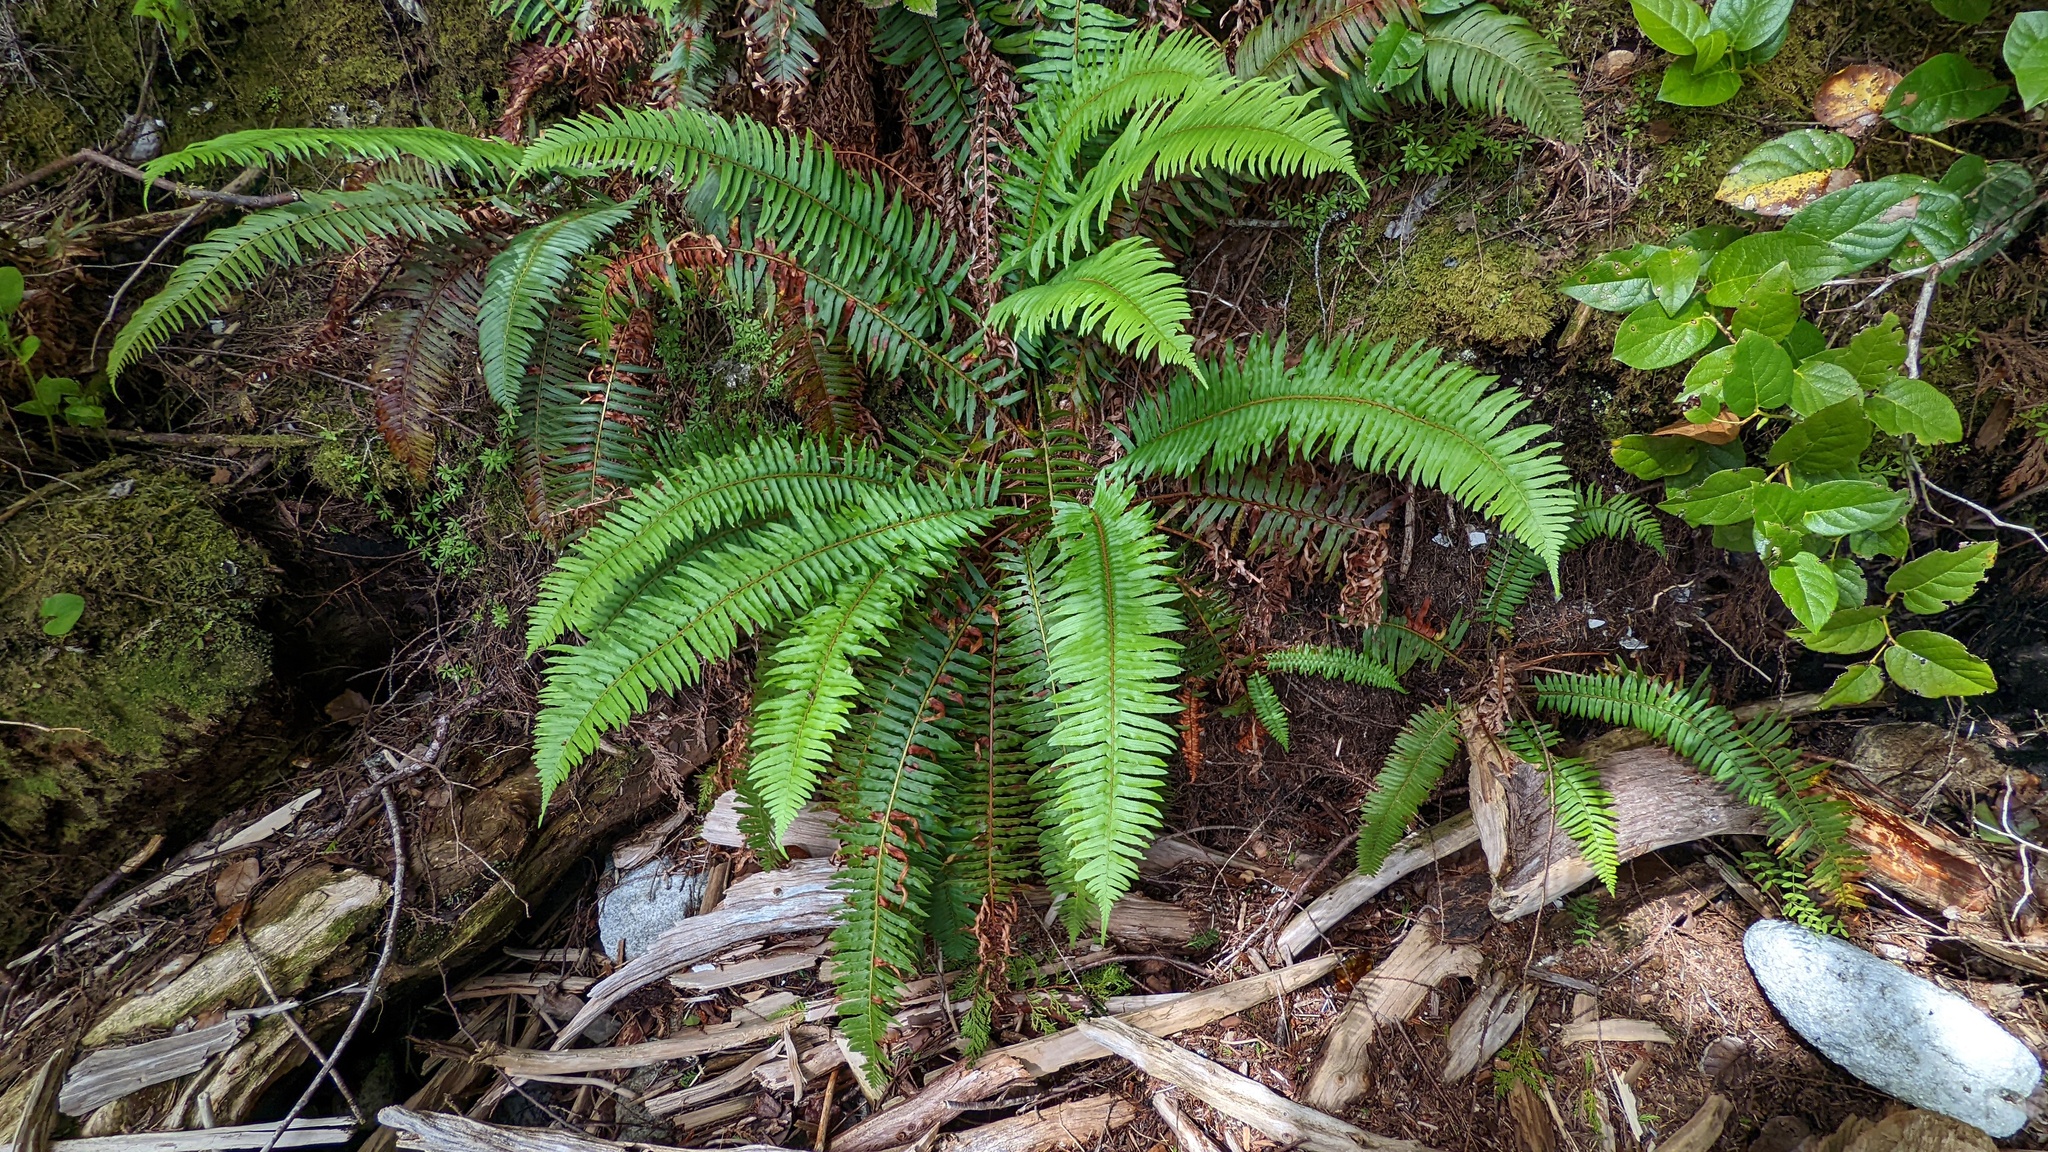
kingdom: Plantae
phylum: Tracheophyta
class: Polypodiopsida
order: Polypodiales
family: Dryopteridaceae
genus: Polystichum
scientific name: Polystichum munitum
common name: Western sword-fern
